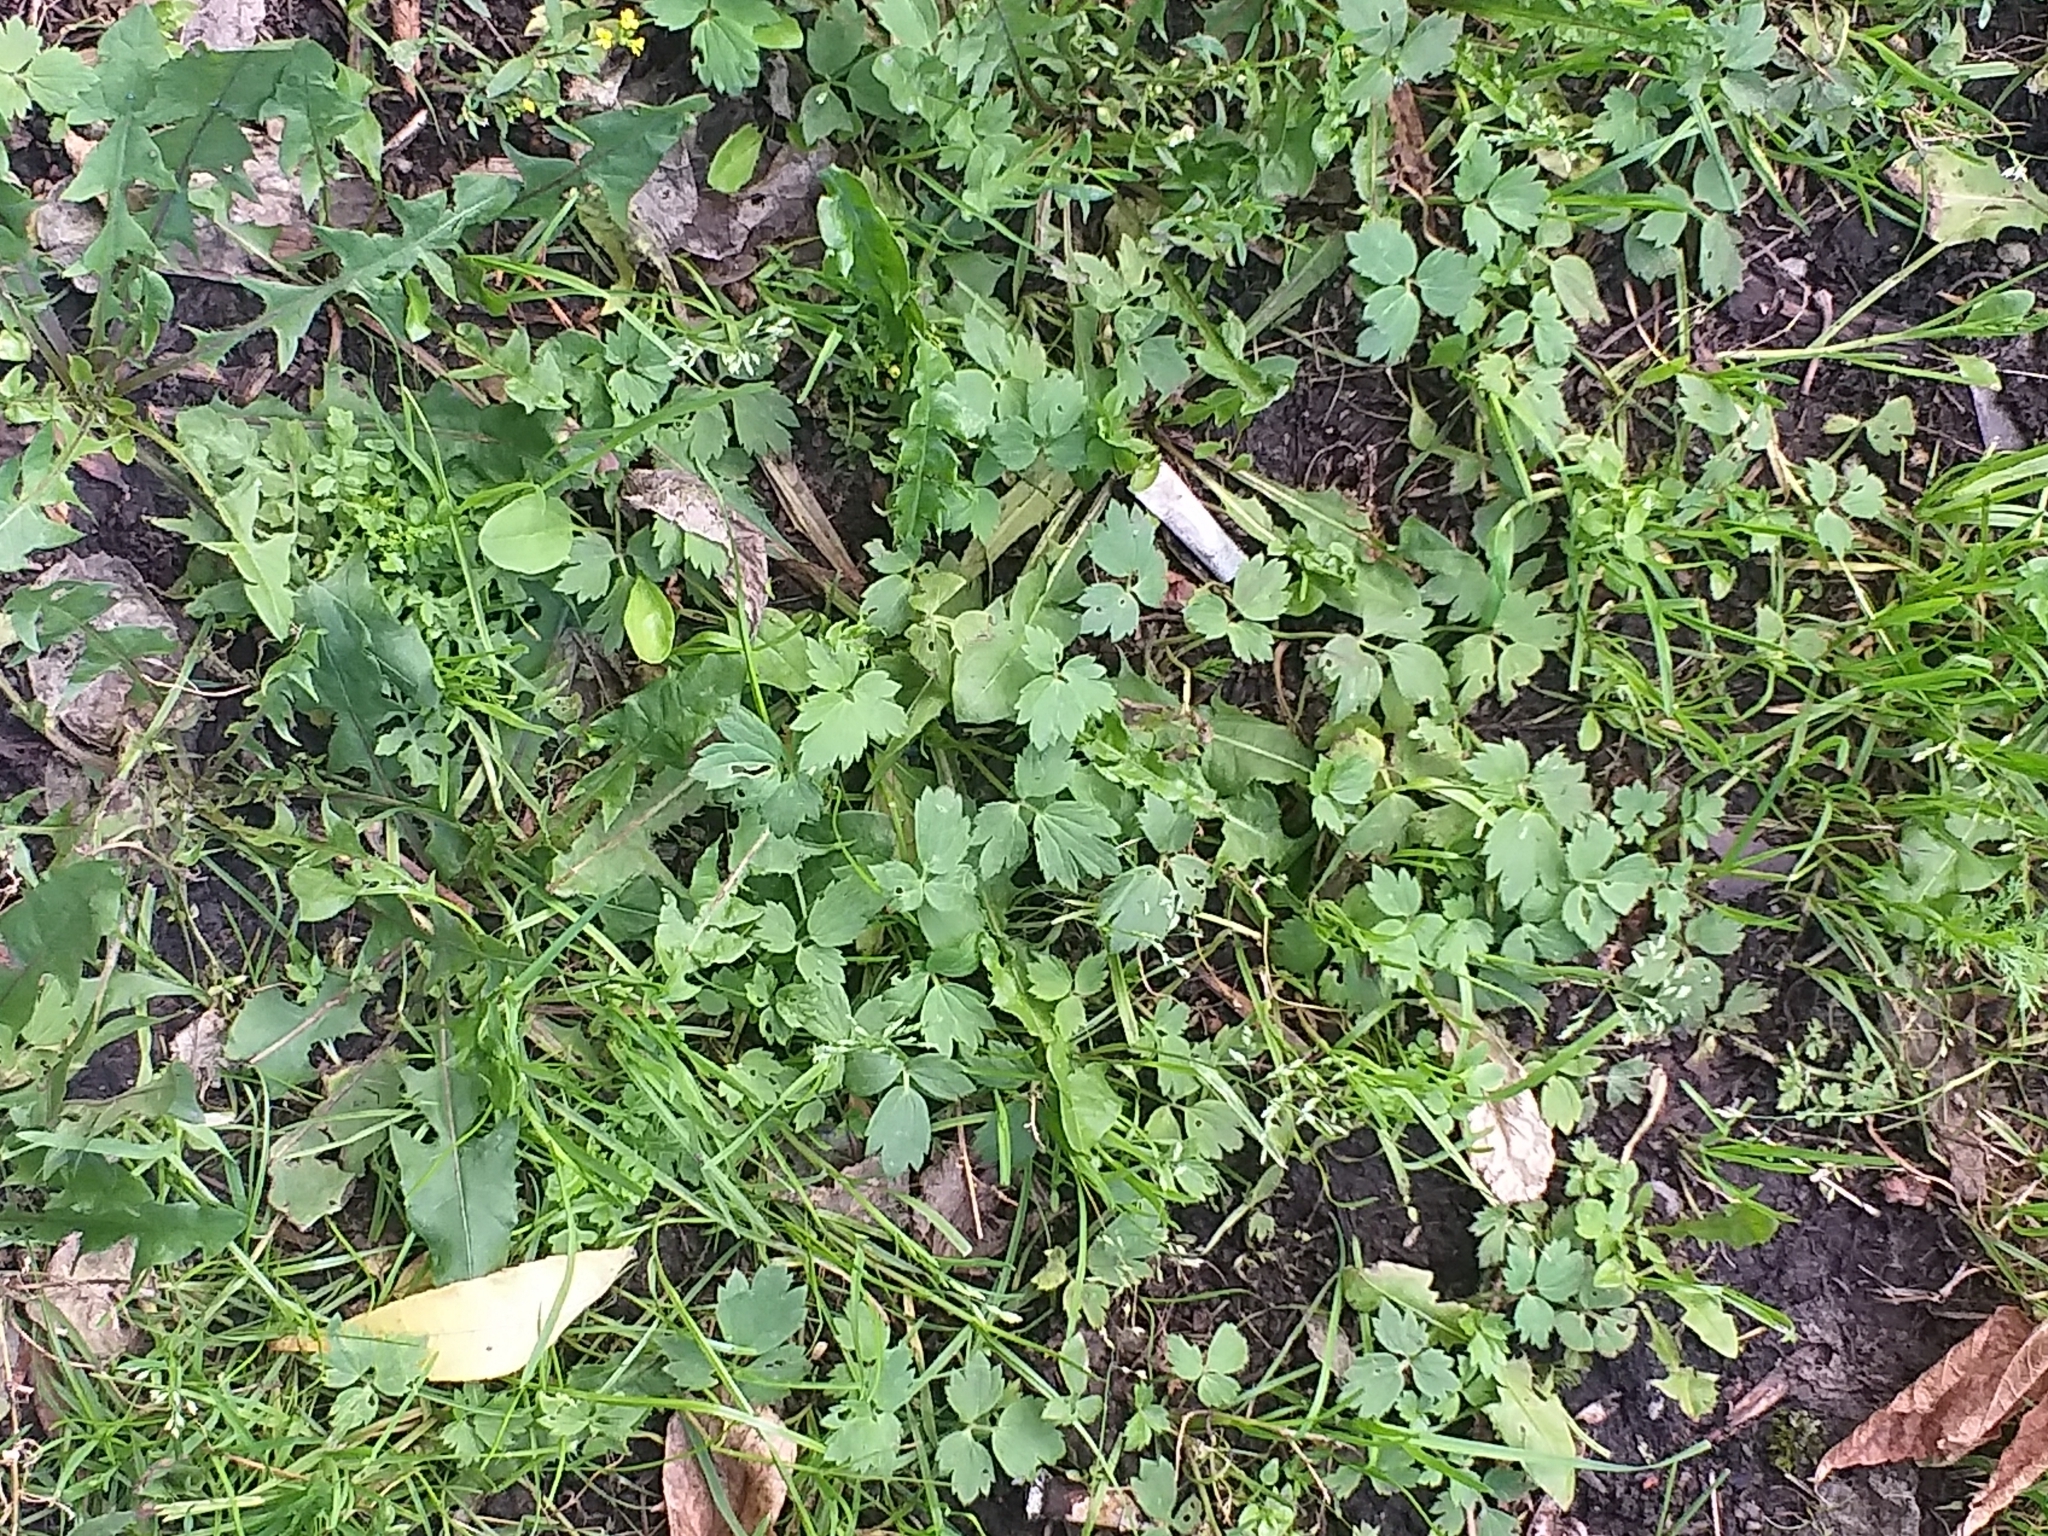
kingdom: Plantae
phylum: Tracheophyta
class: Magnoliopsida
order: Ranunculales
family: Ranunculaceae
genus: Ranunculus
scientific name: Ranunculus repens
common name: Creeping buttercup
